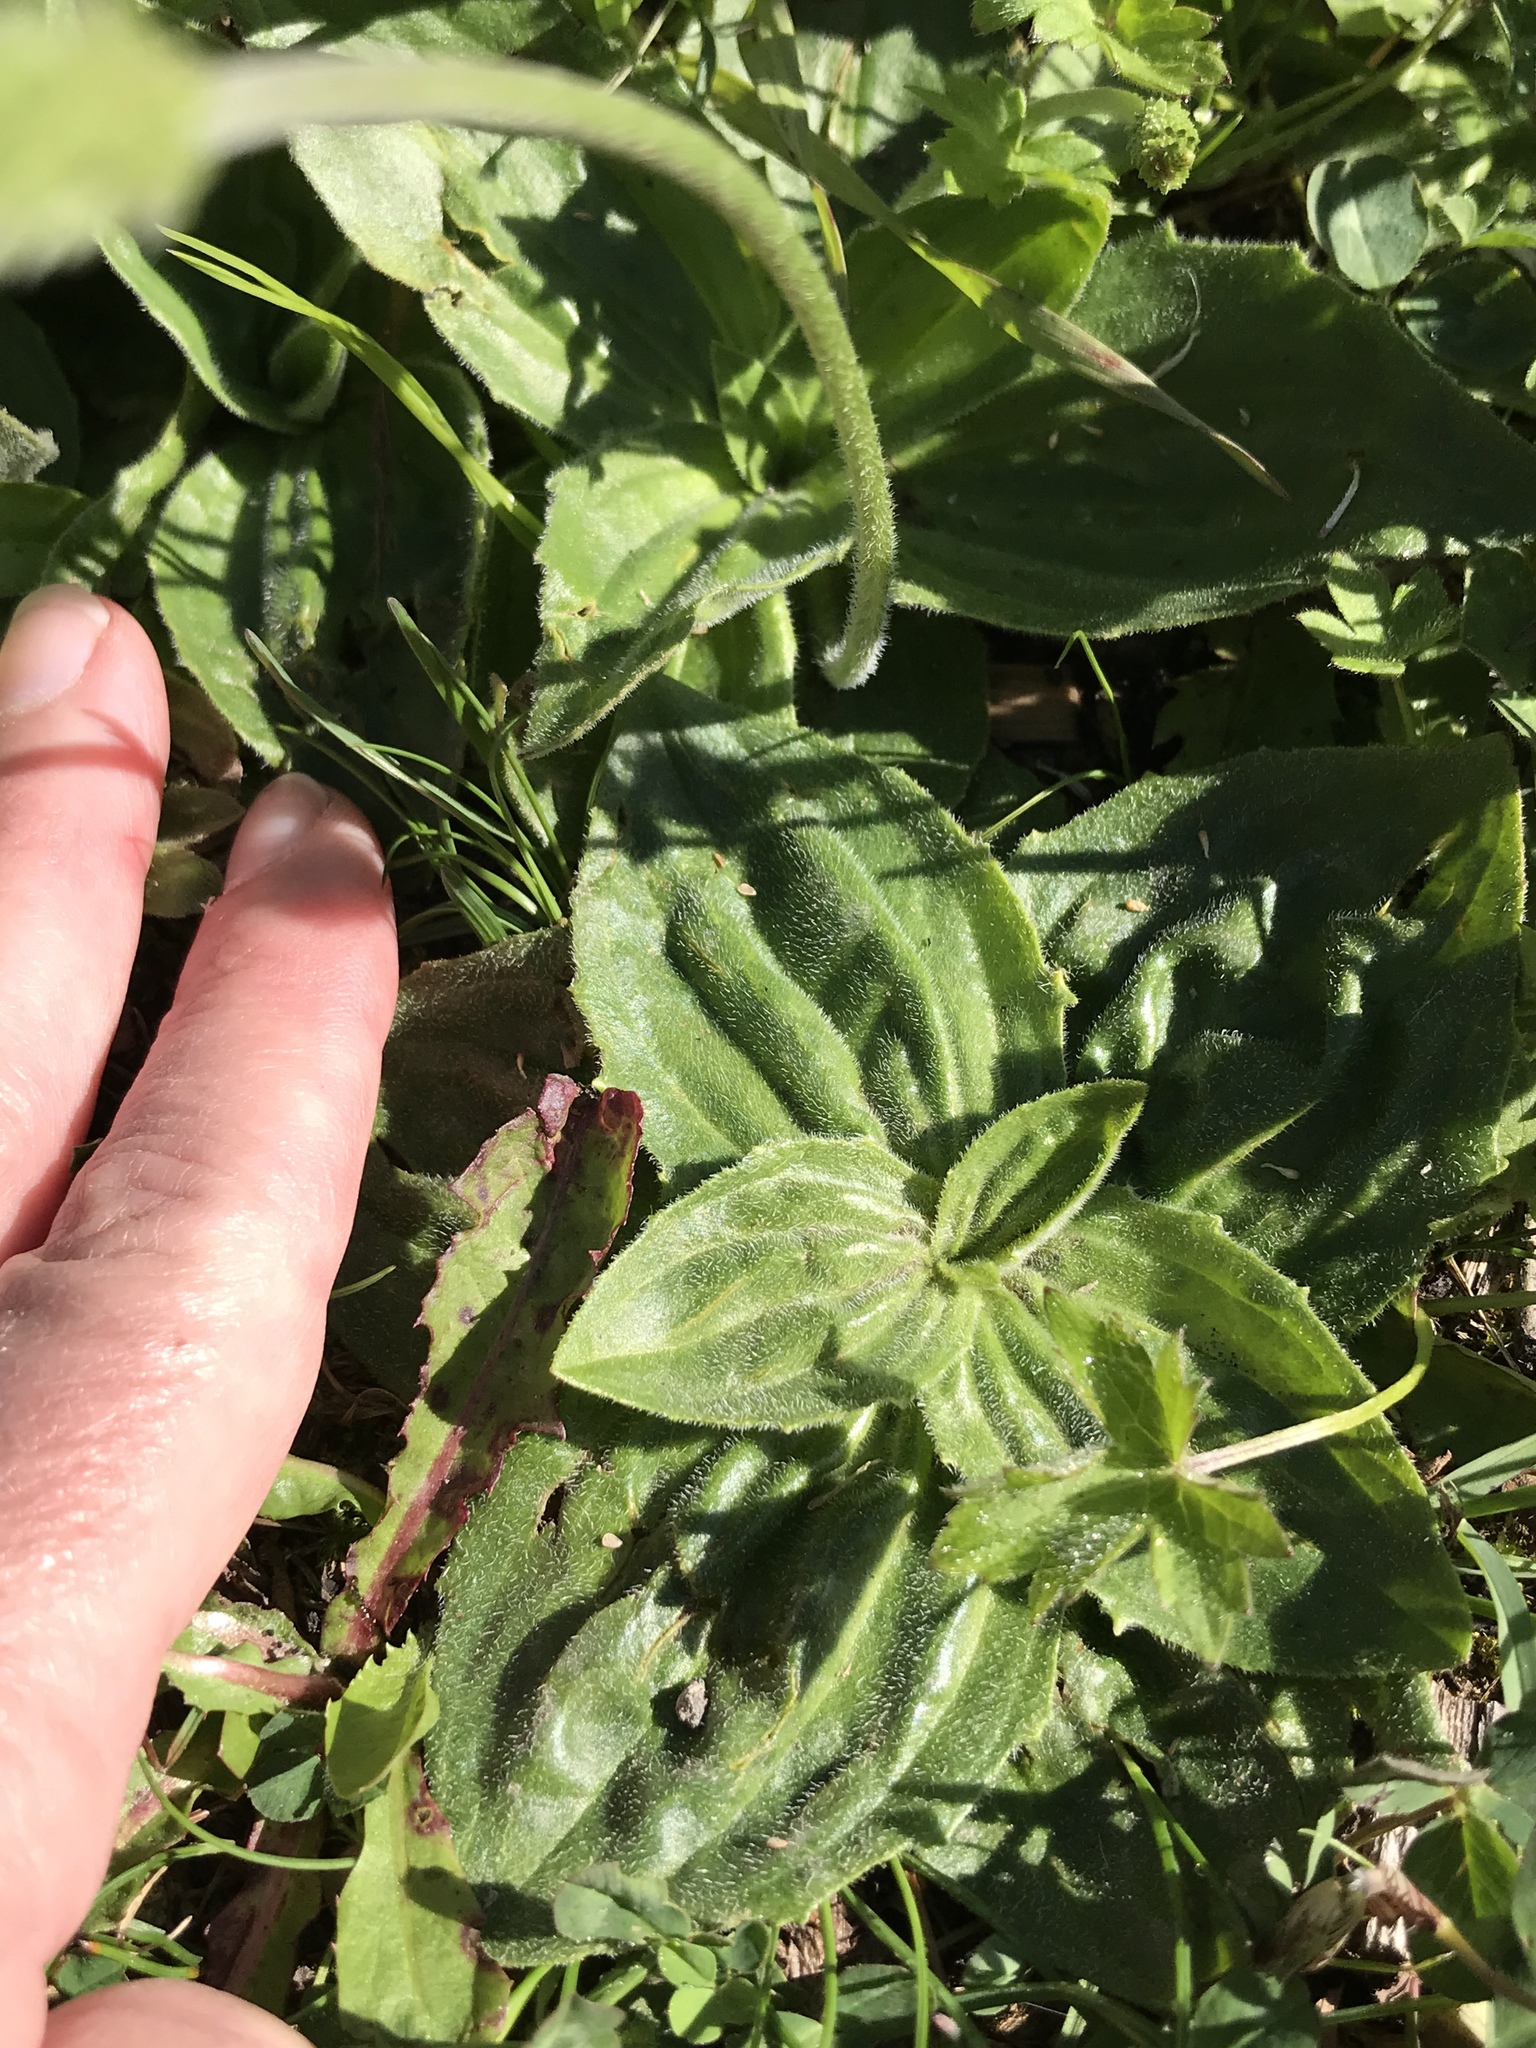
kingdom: Plantae
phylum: Tracheophyta
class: Magnoliopsida
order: Lamiales
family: Plantaginaceae
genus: Plantago
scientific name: Plantago media
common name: Hoary plantain
